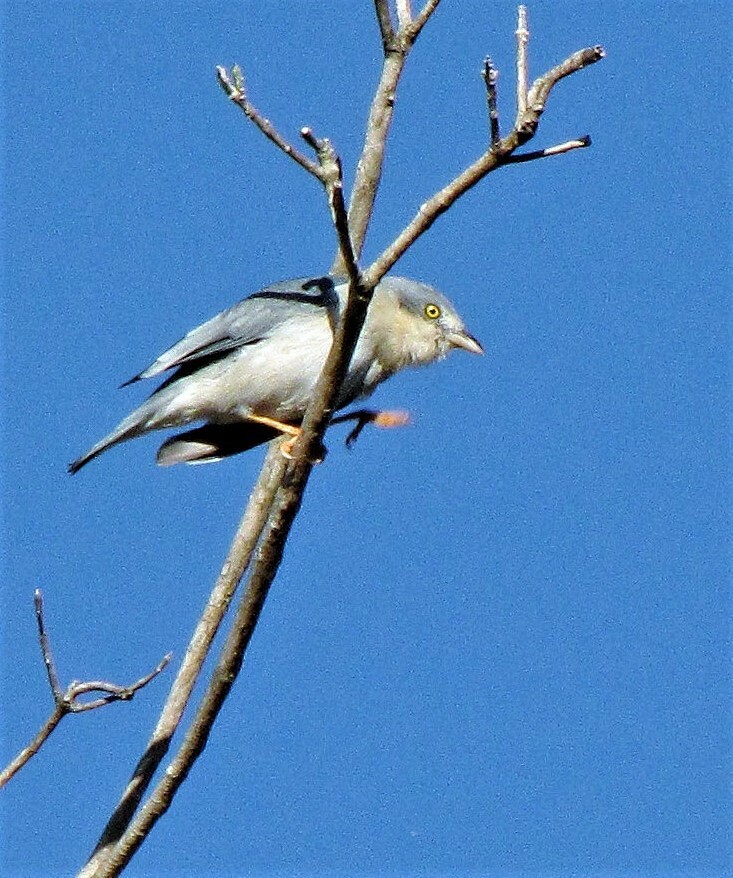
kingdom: Animalia
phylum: Chordata
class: Aves
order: Passeriformes
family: Thraupidae
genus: Nemosia
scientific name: Nemosia pileata
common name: Hooded tanager
